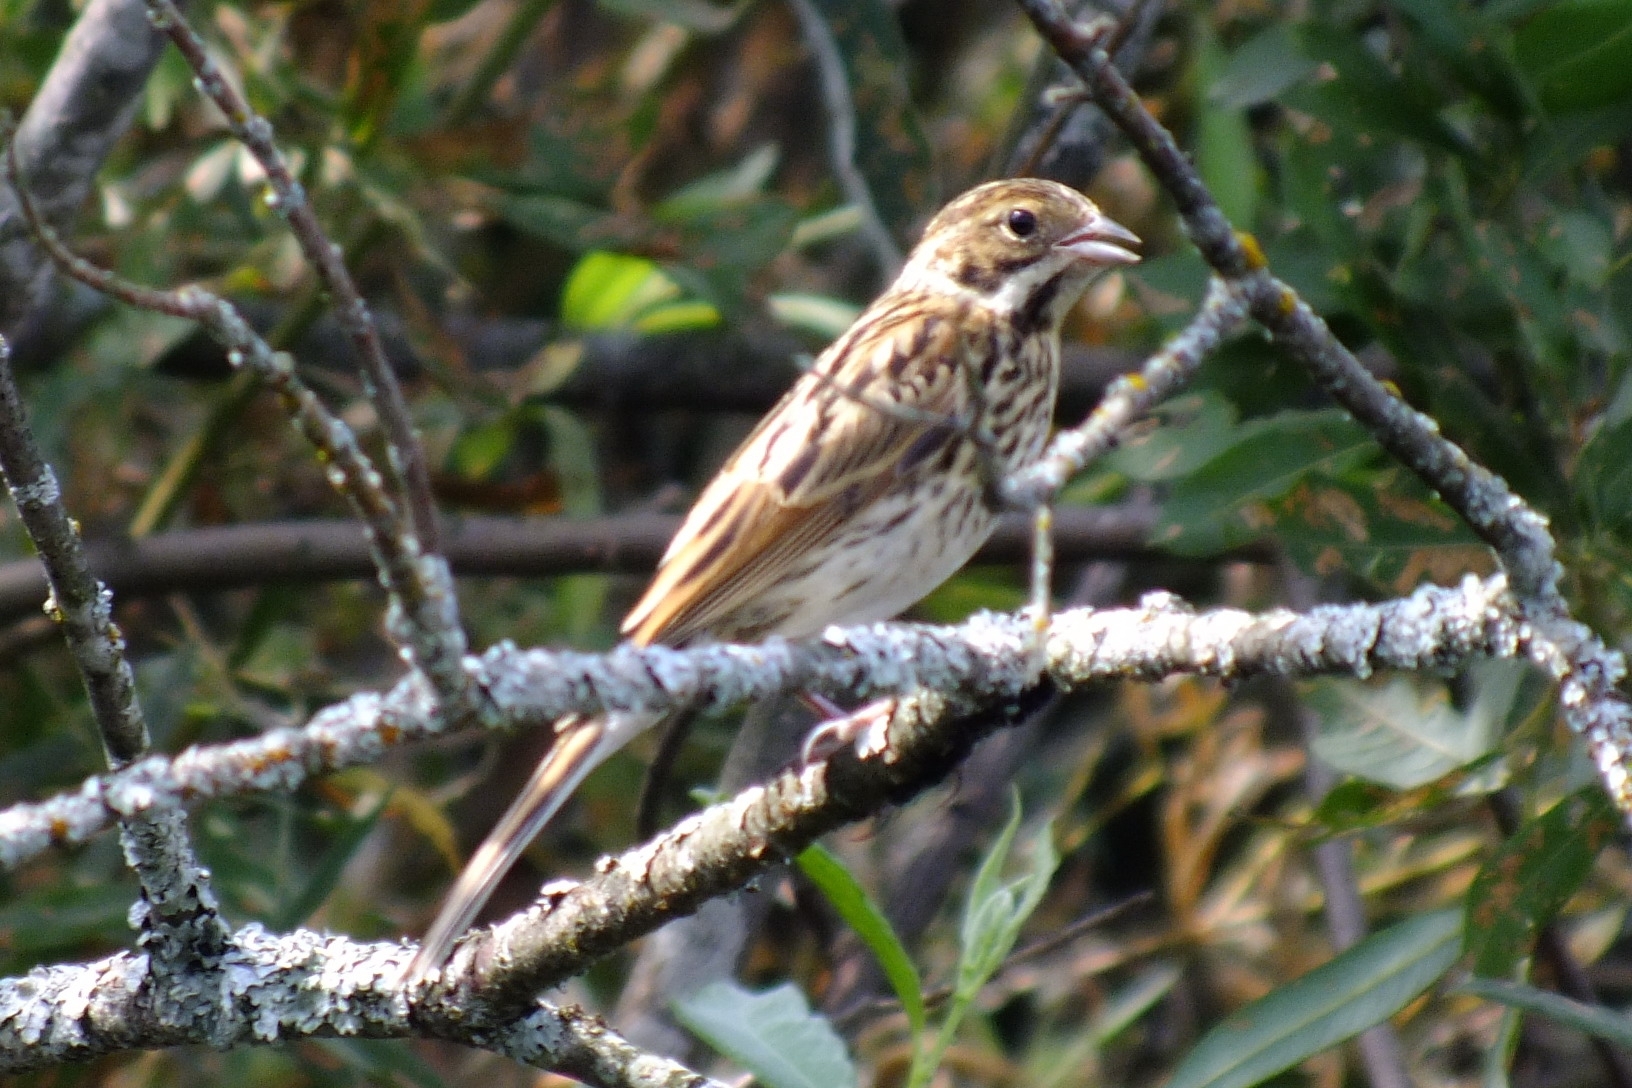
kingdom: Animalia
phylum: Chordata
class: Aves
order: Passeriformes
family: Emberizidae
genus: Emberiza
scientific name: Emberiza schoeniclus
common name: Reed bunting
